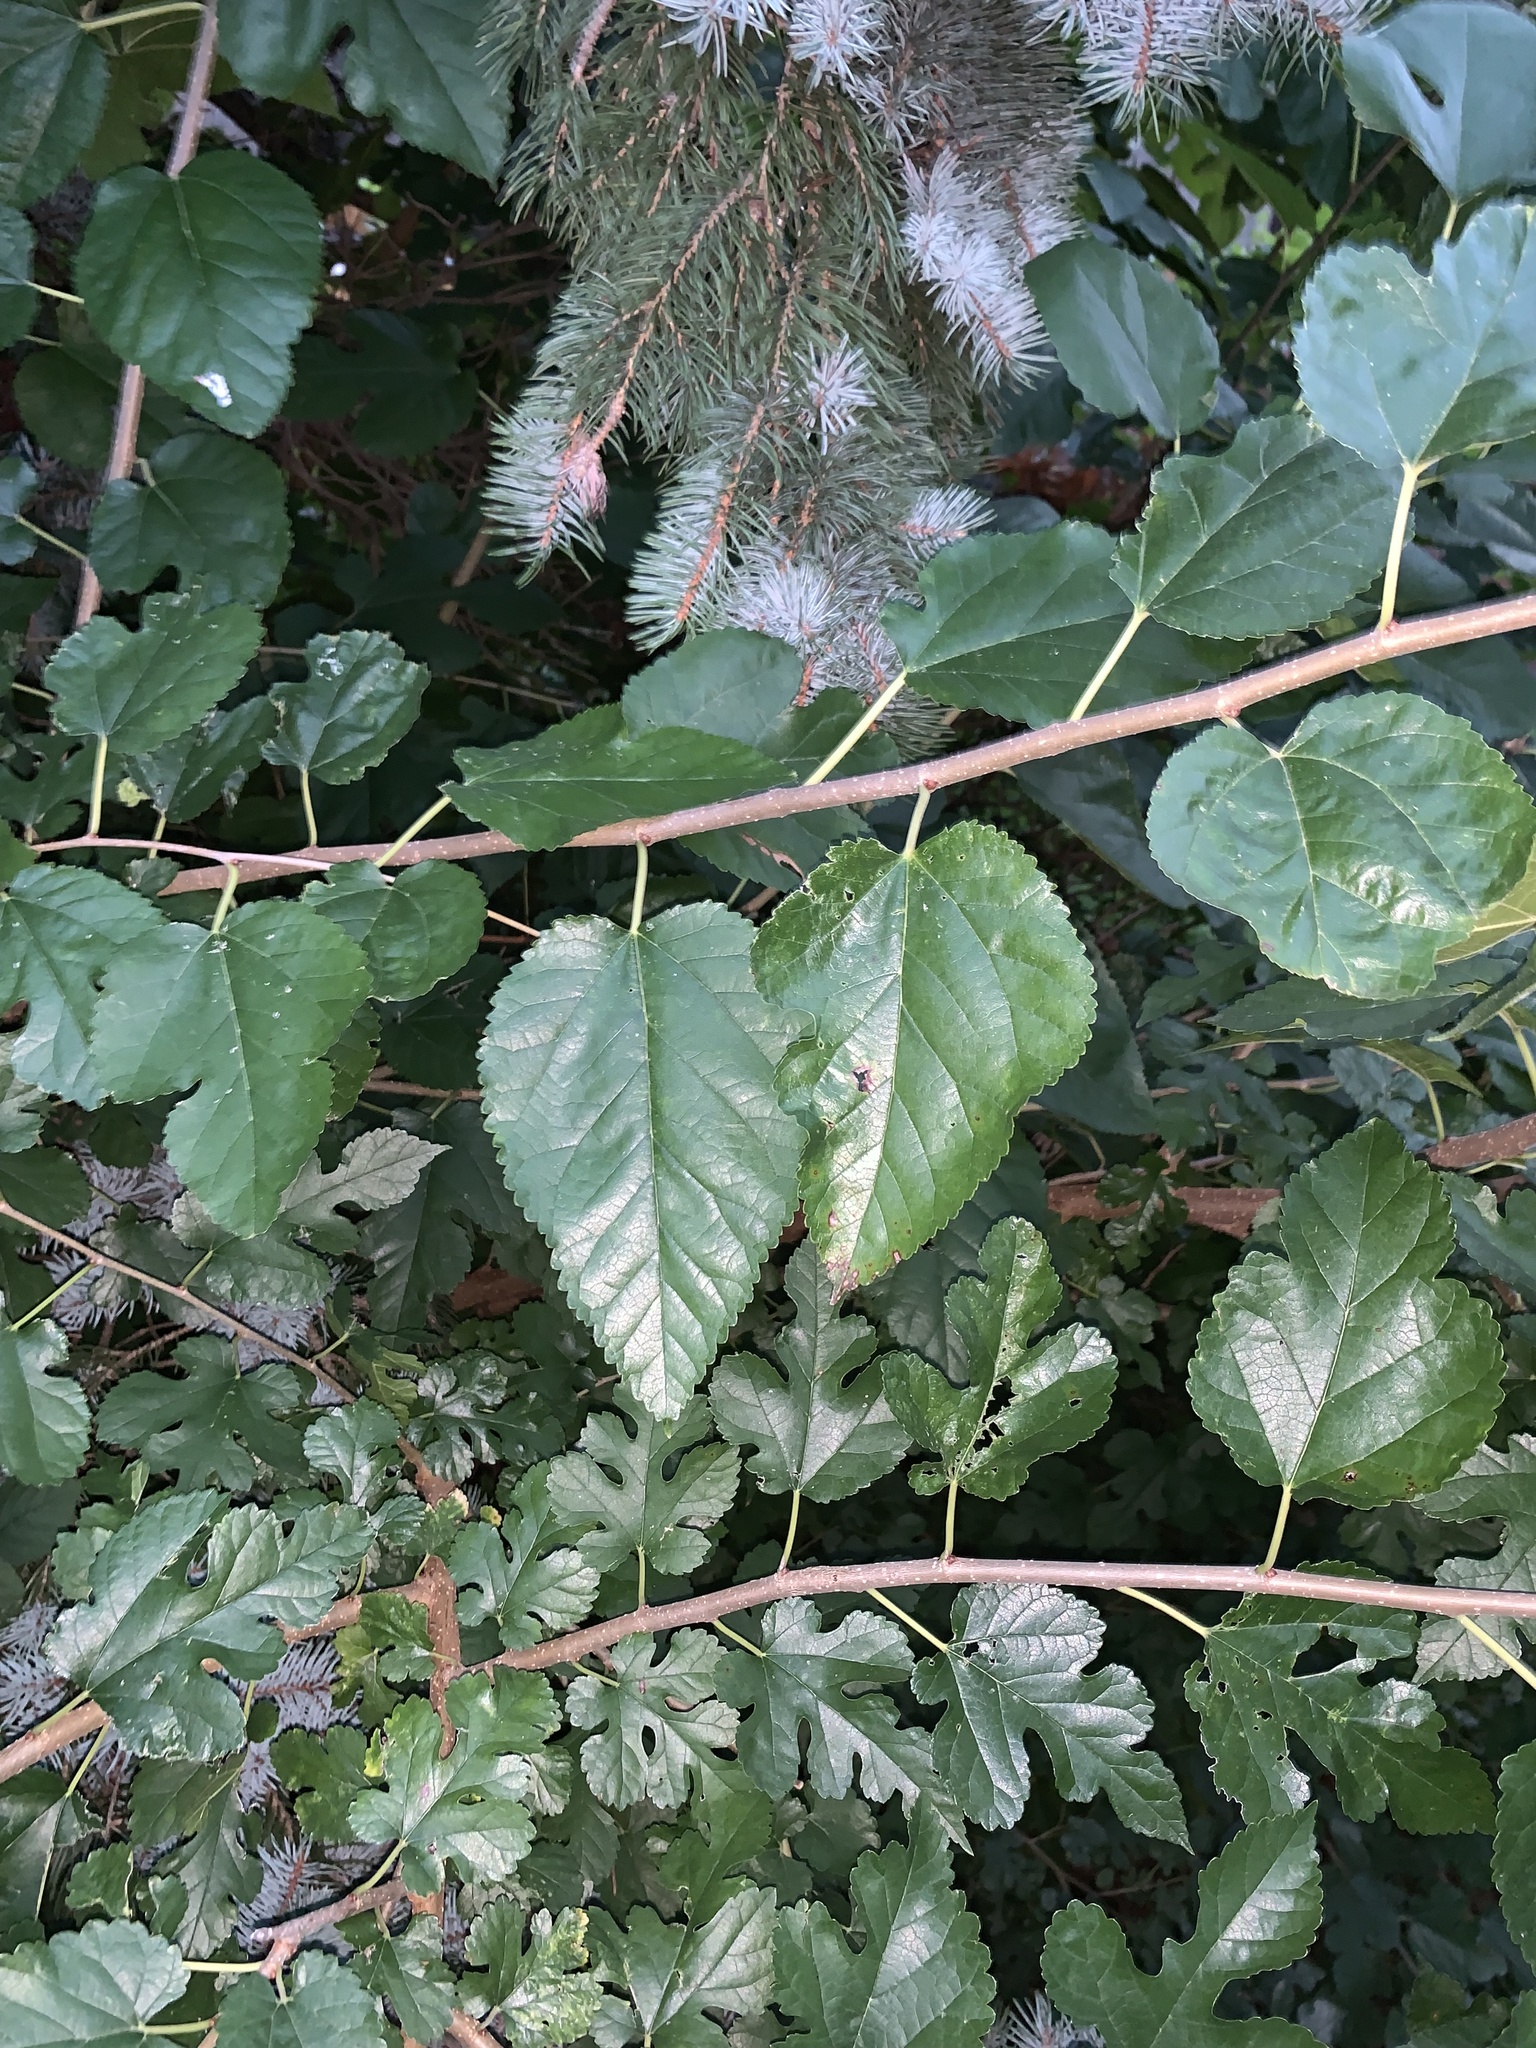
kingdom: Plantae
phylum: Tracheophyta
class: Magnoliopsida
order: Rosales
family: Moraceae
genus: Morus
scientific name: Morus alba
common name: White mulberry
